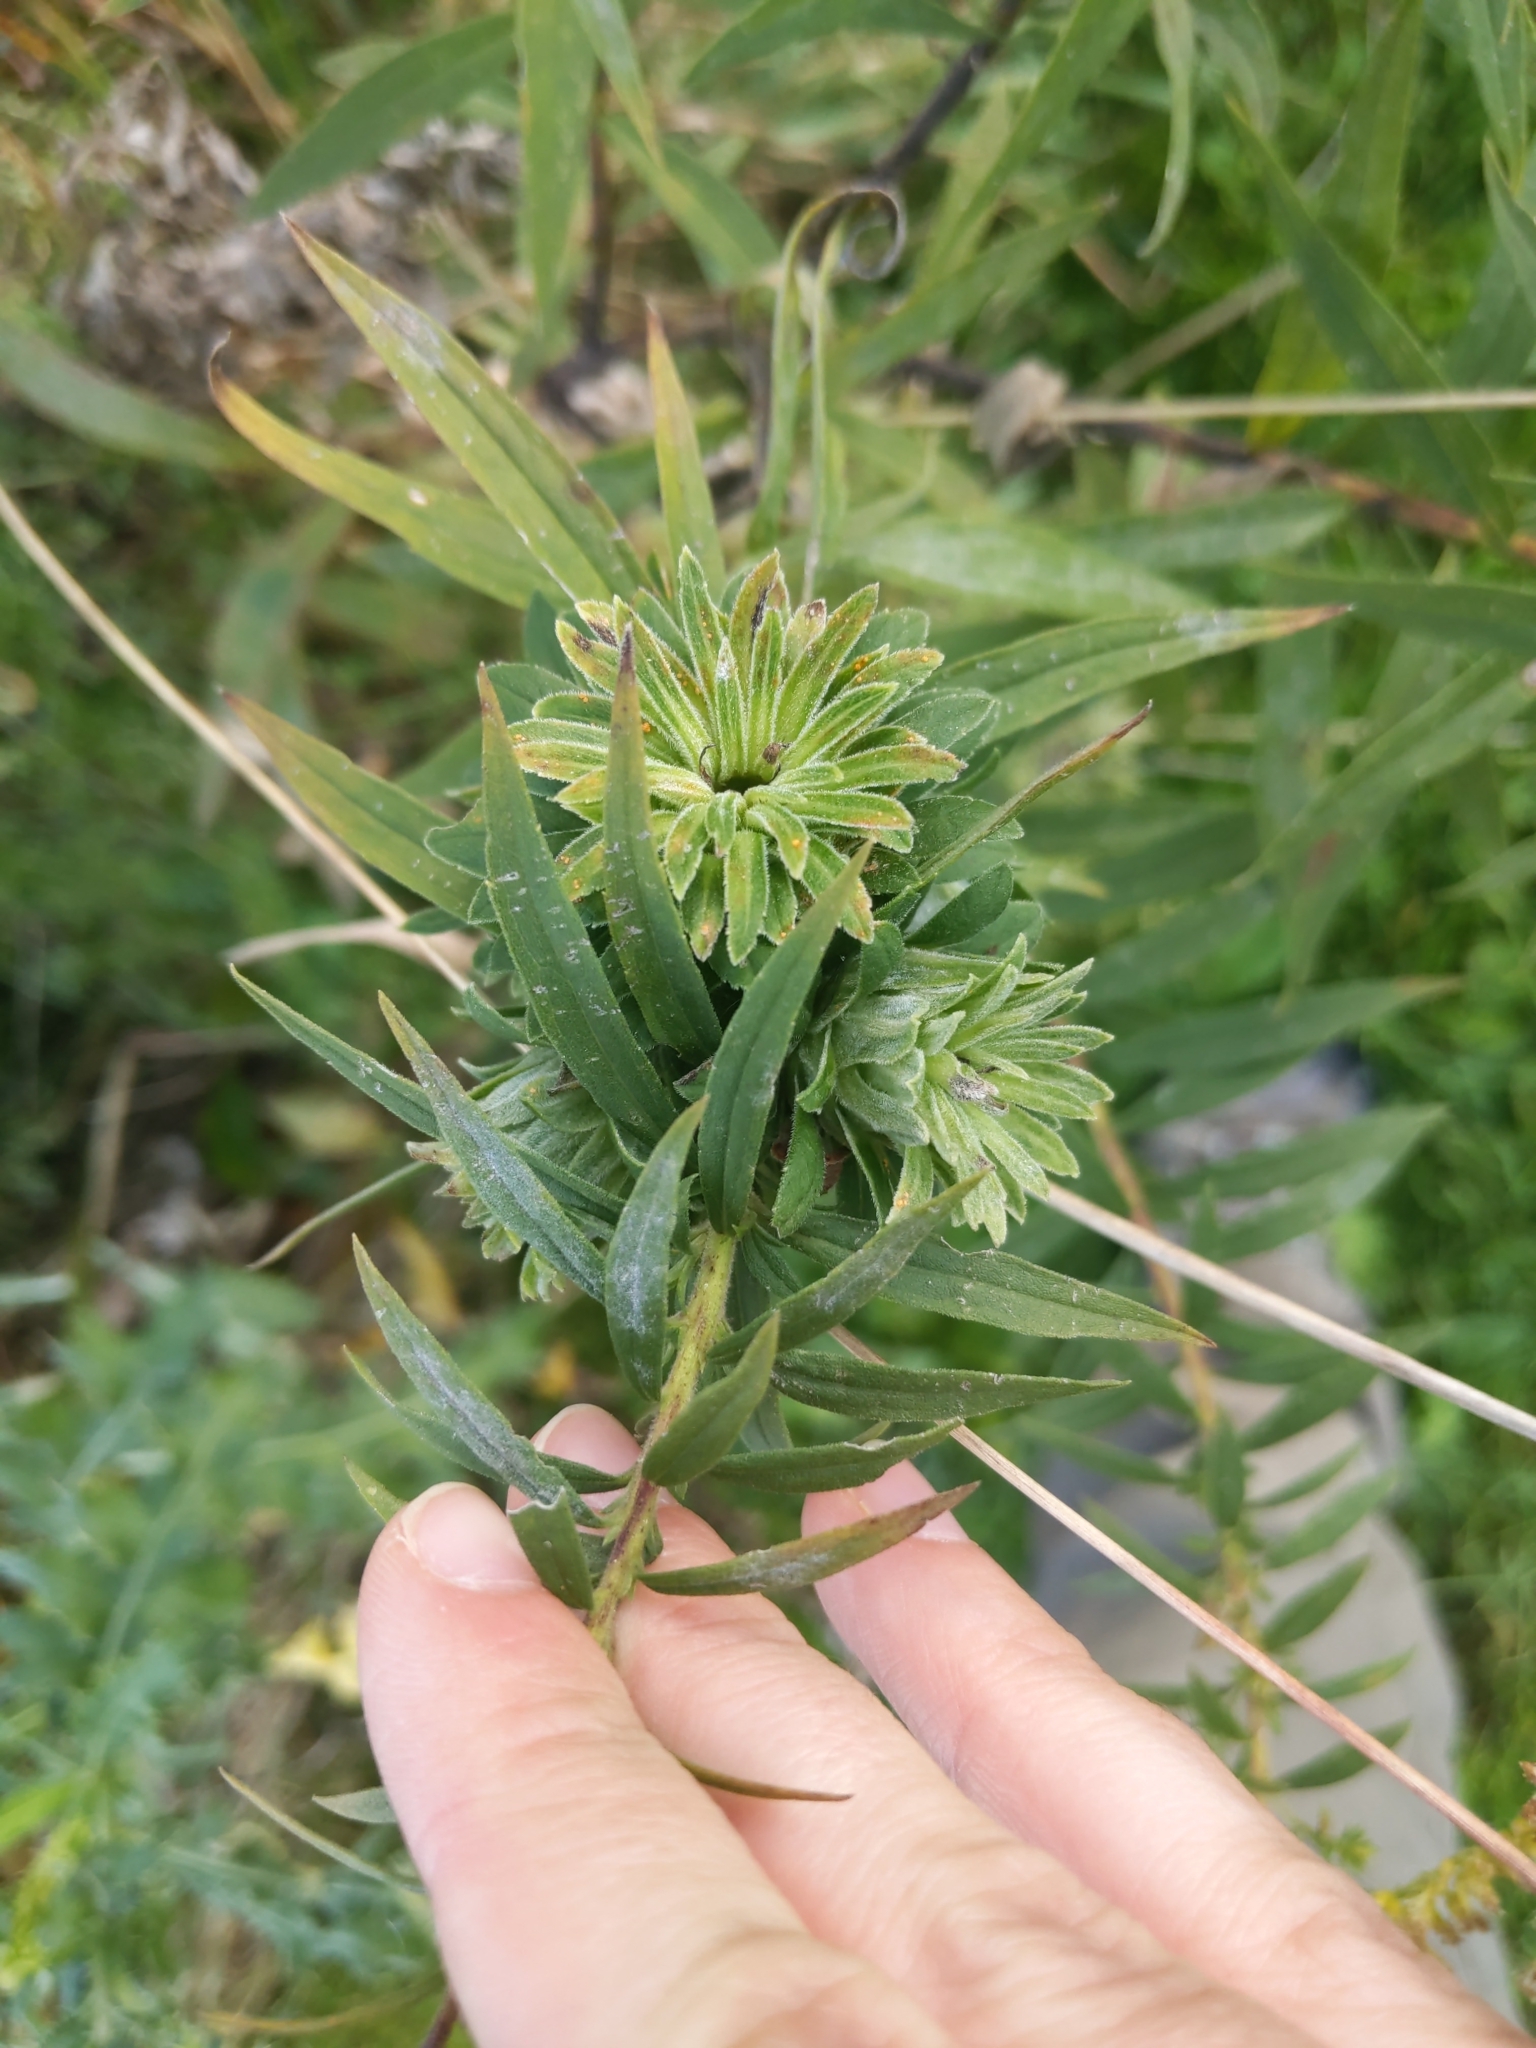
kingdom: Animalia
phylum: Arthropoda
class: Insecta
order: Diptera
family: Tephritidae
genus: Procecidochares
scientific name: Procecidochares atra
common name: Goldenrod brussels sprout gall fly
